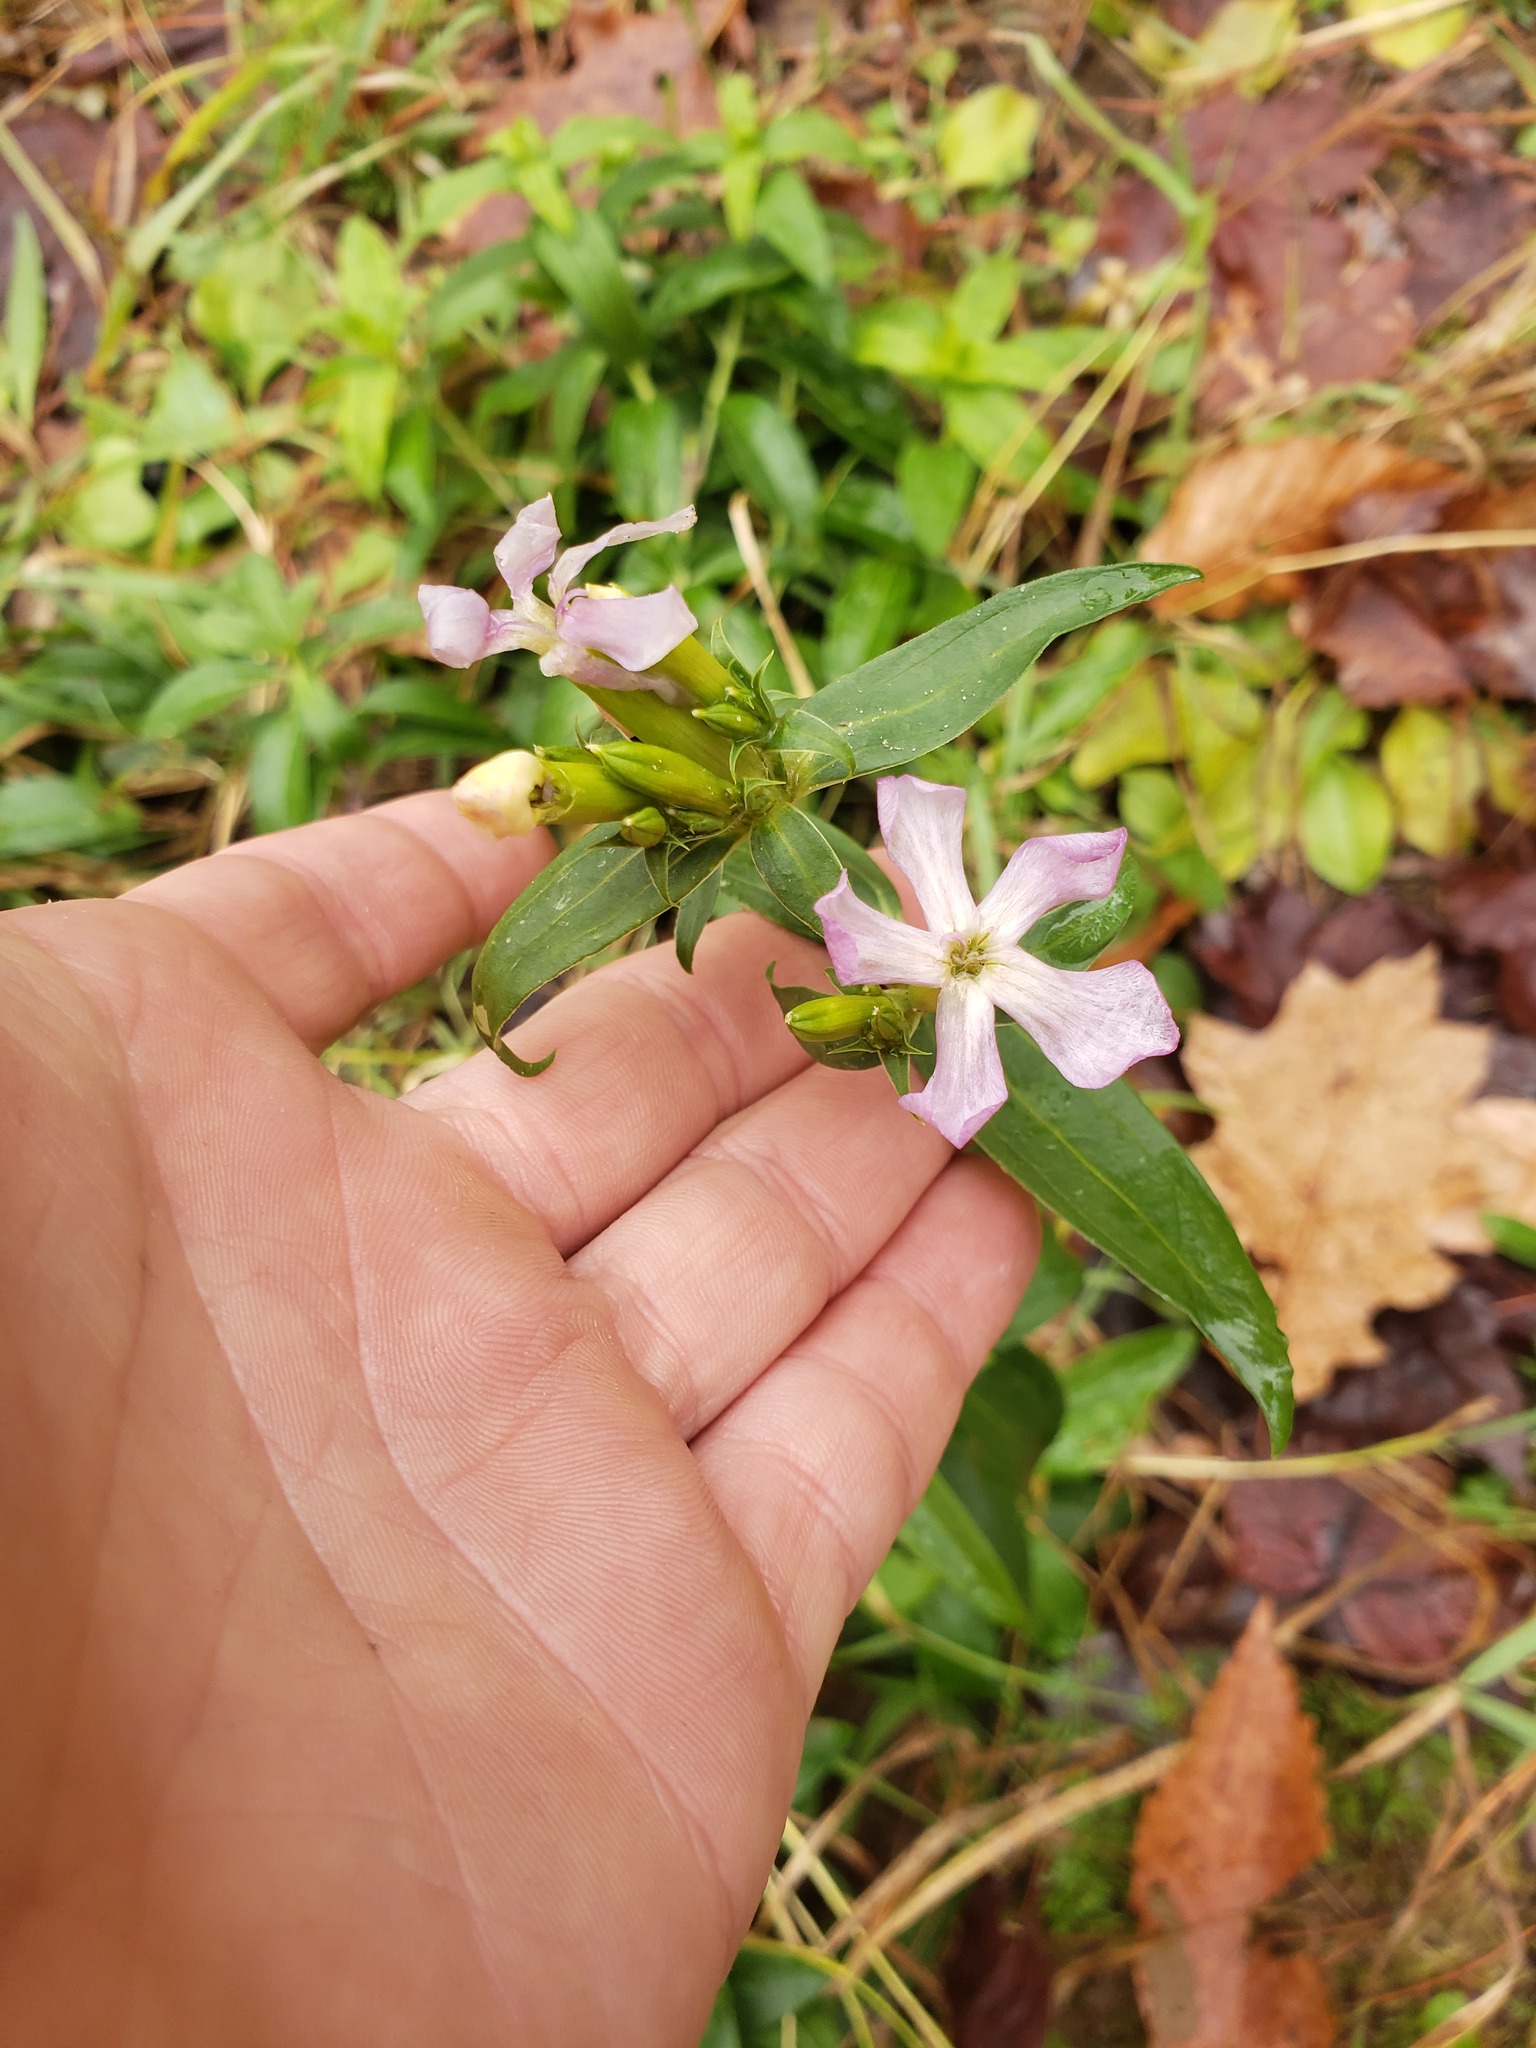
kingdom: Plantae
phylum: Tracheophyta
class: Magnoliopsida
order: Caryophyllales
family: Caryophyllaceae
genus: Saponaria
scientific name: Saponaria officinalis
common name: Soapwort
